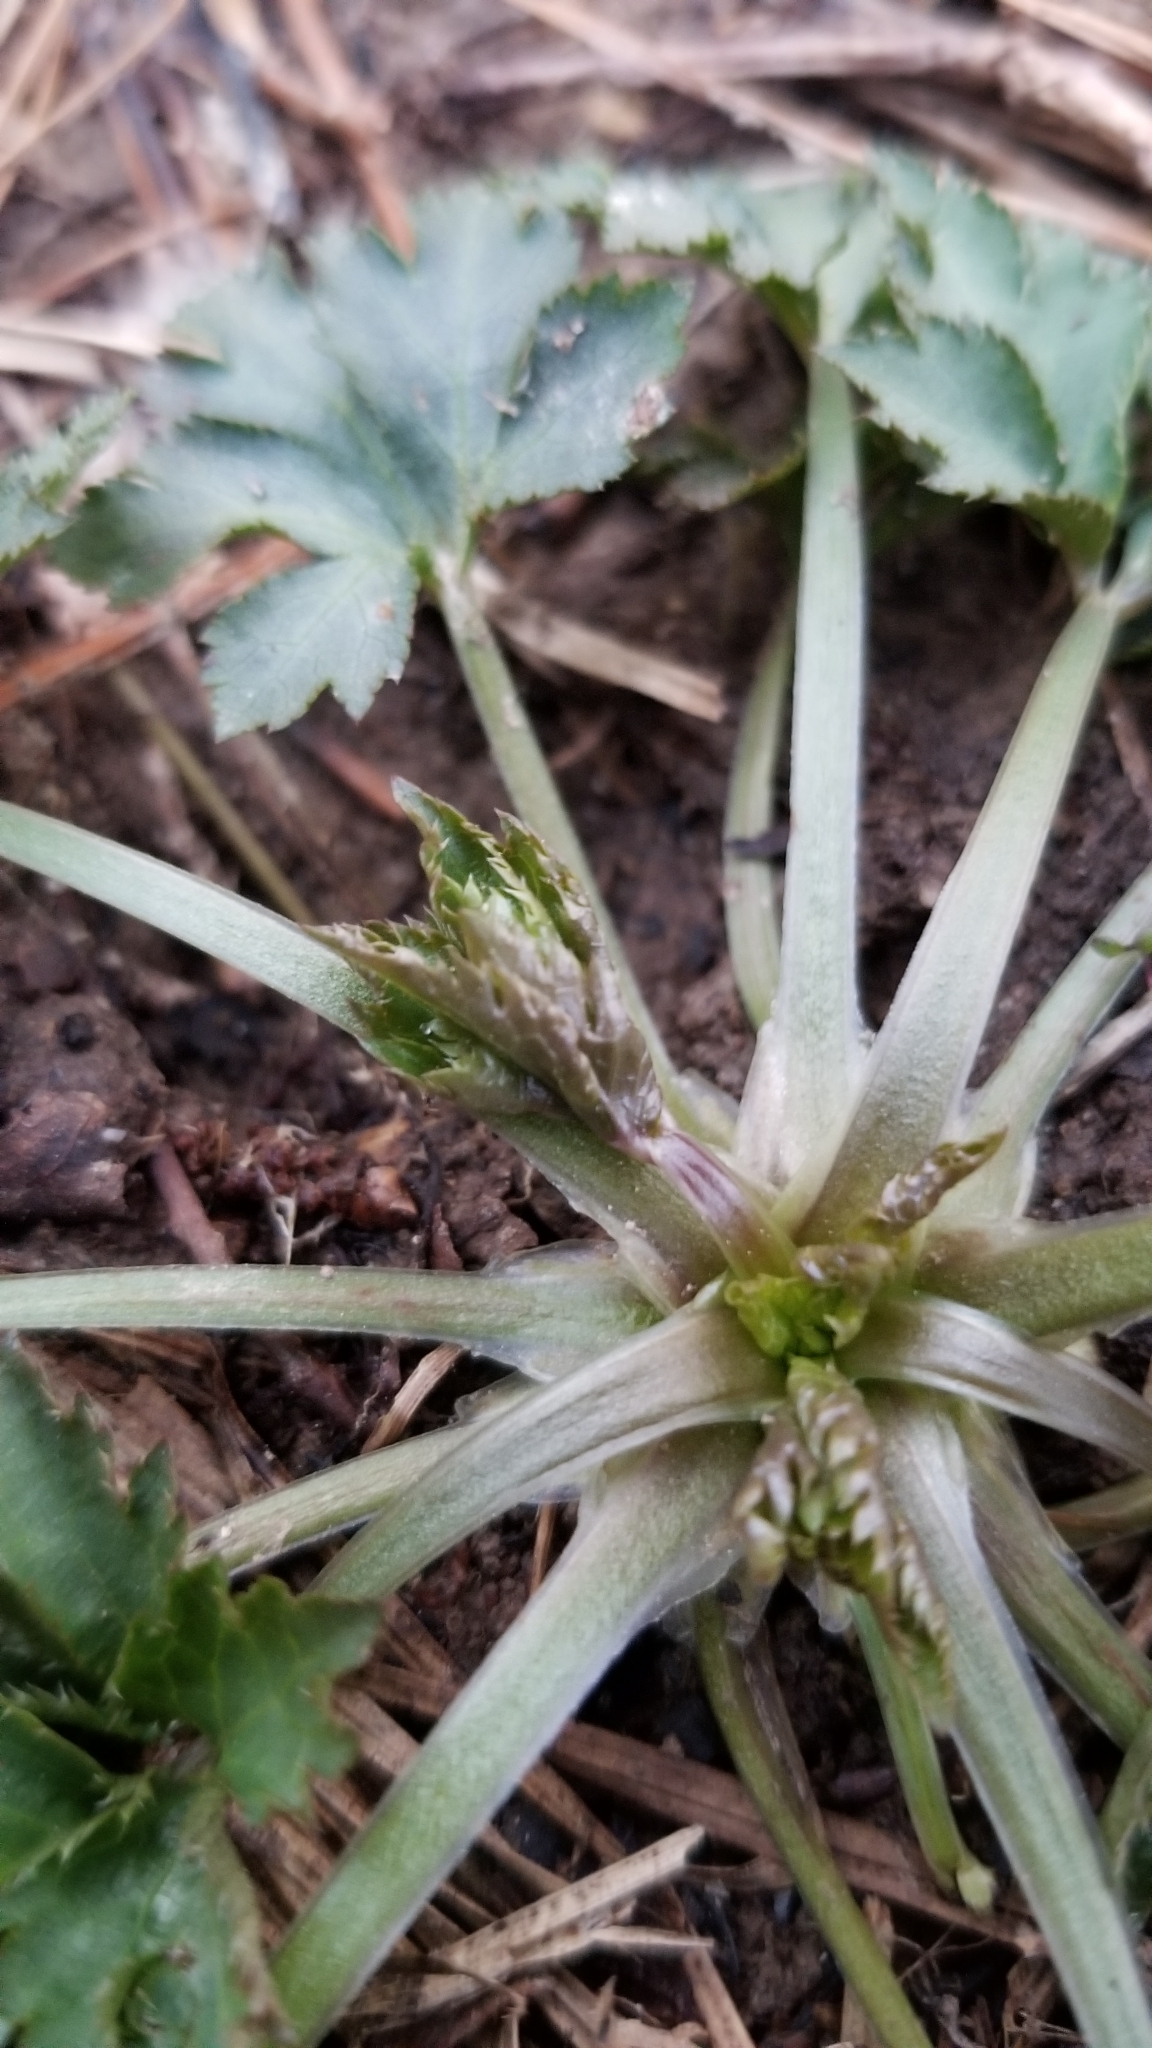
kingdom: Plantae
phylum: Tracheophyta
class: Magnoliopsida
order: Apiales
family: Apiaceae
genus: Sanicula
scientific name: Sanicula canadensis
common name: Canada sanicle
